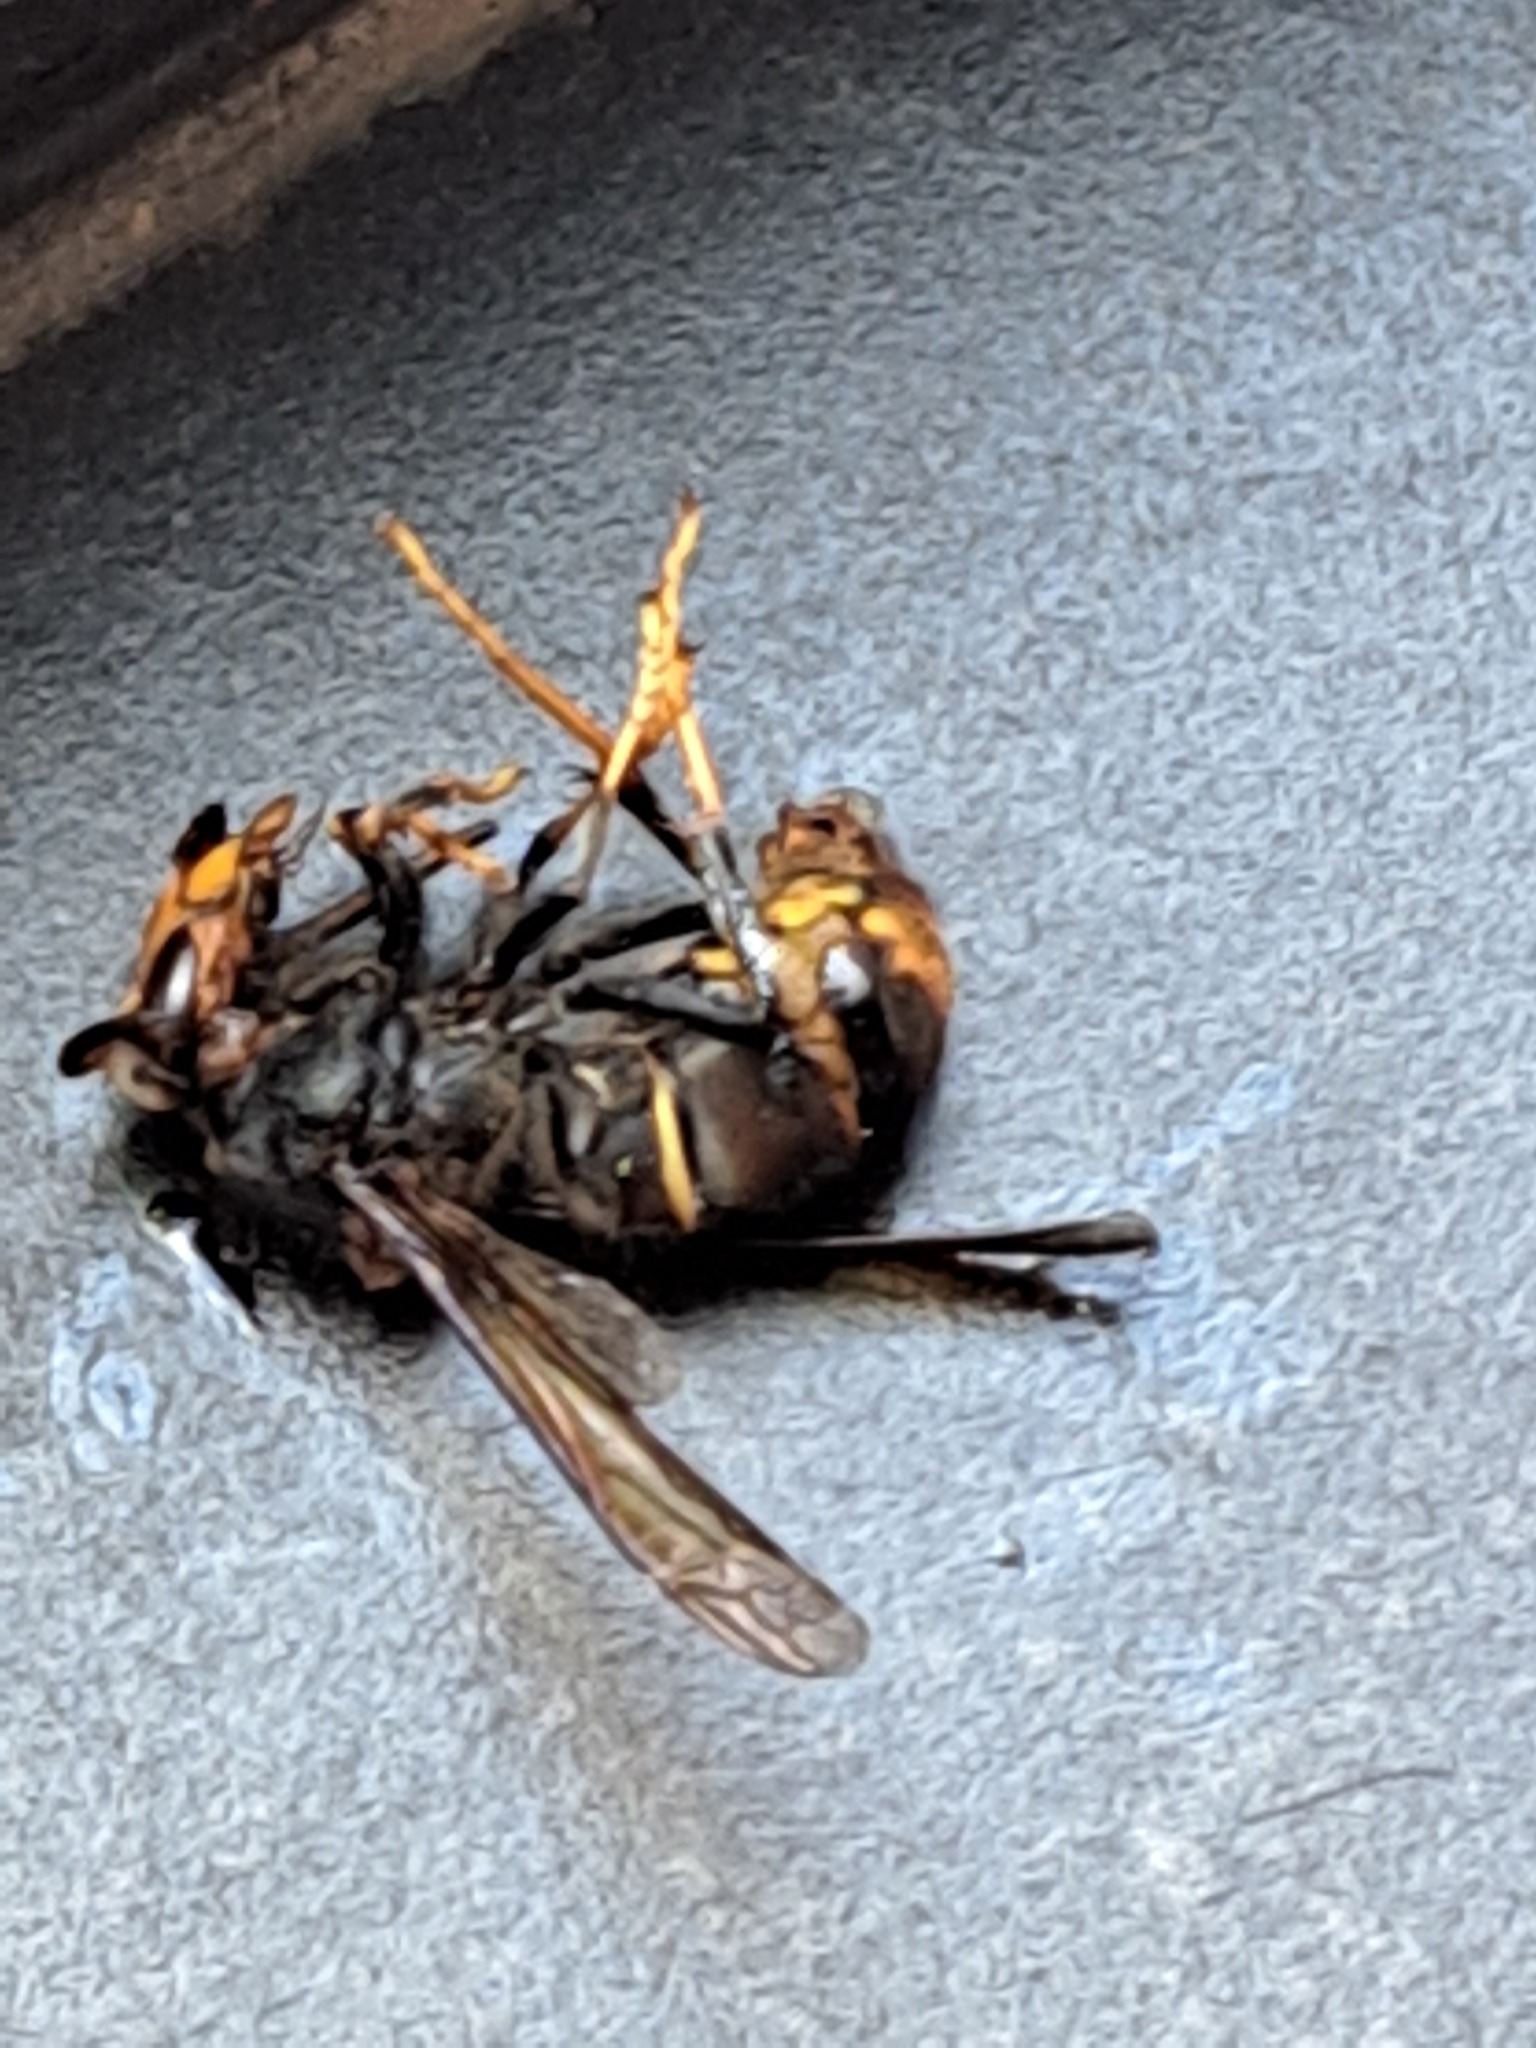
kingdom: Animalia
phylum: Arthropoda
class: Insecta
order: Hymenoptera
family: Vespidae
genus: Vespa
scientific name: Vespa velutina
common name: Asian hornet
